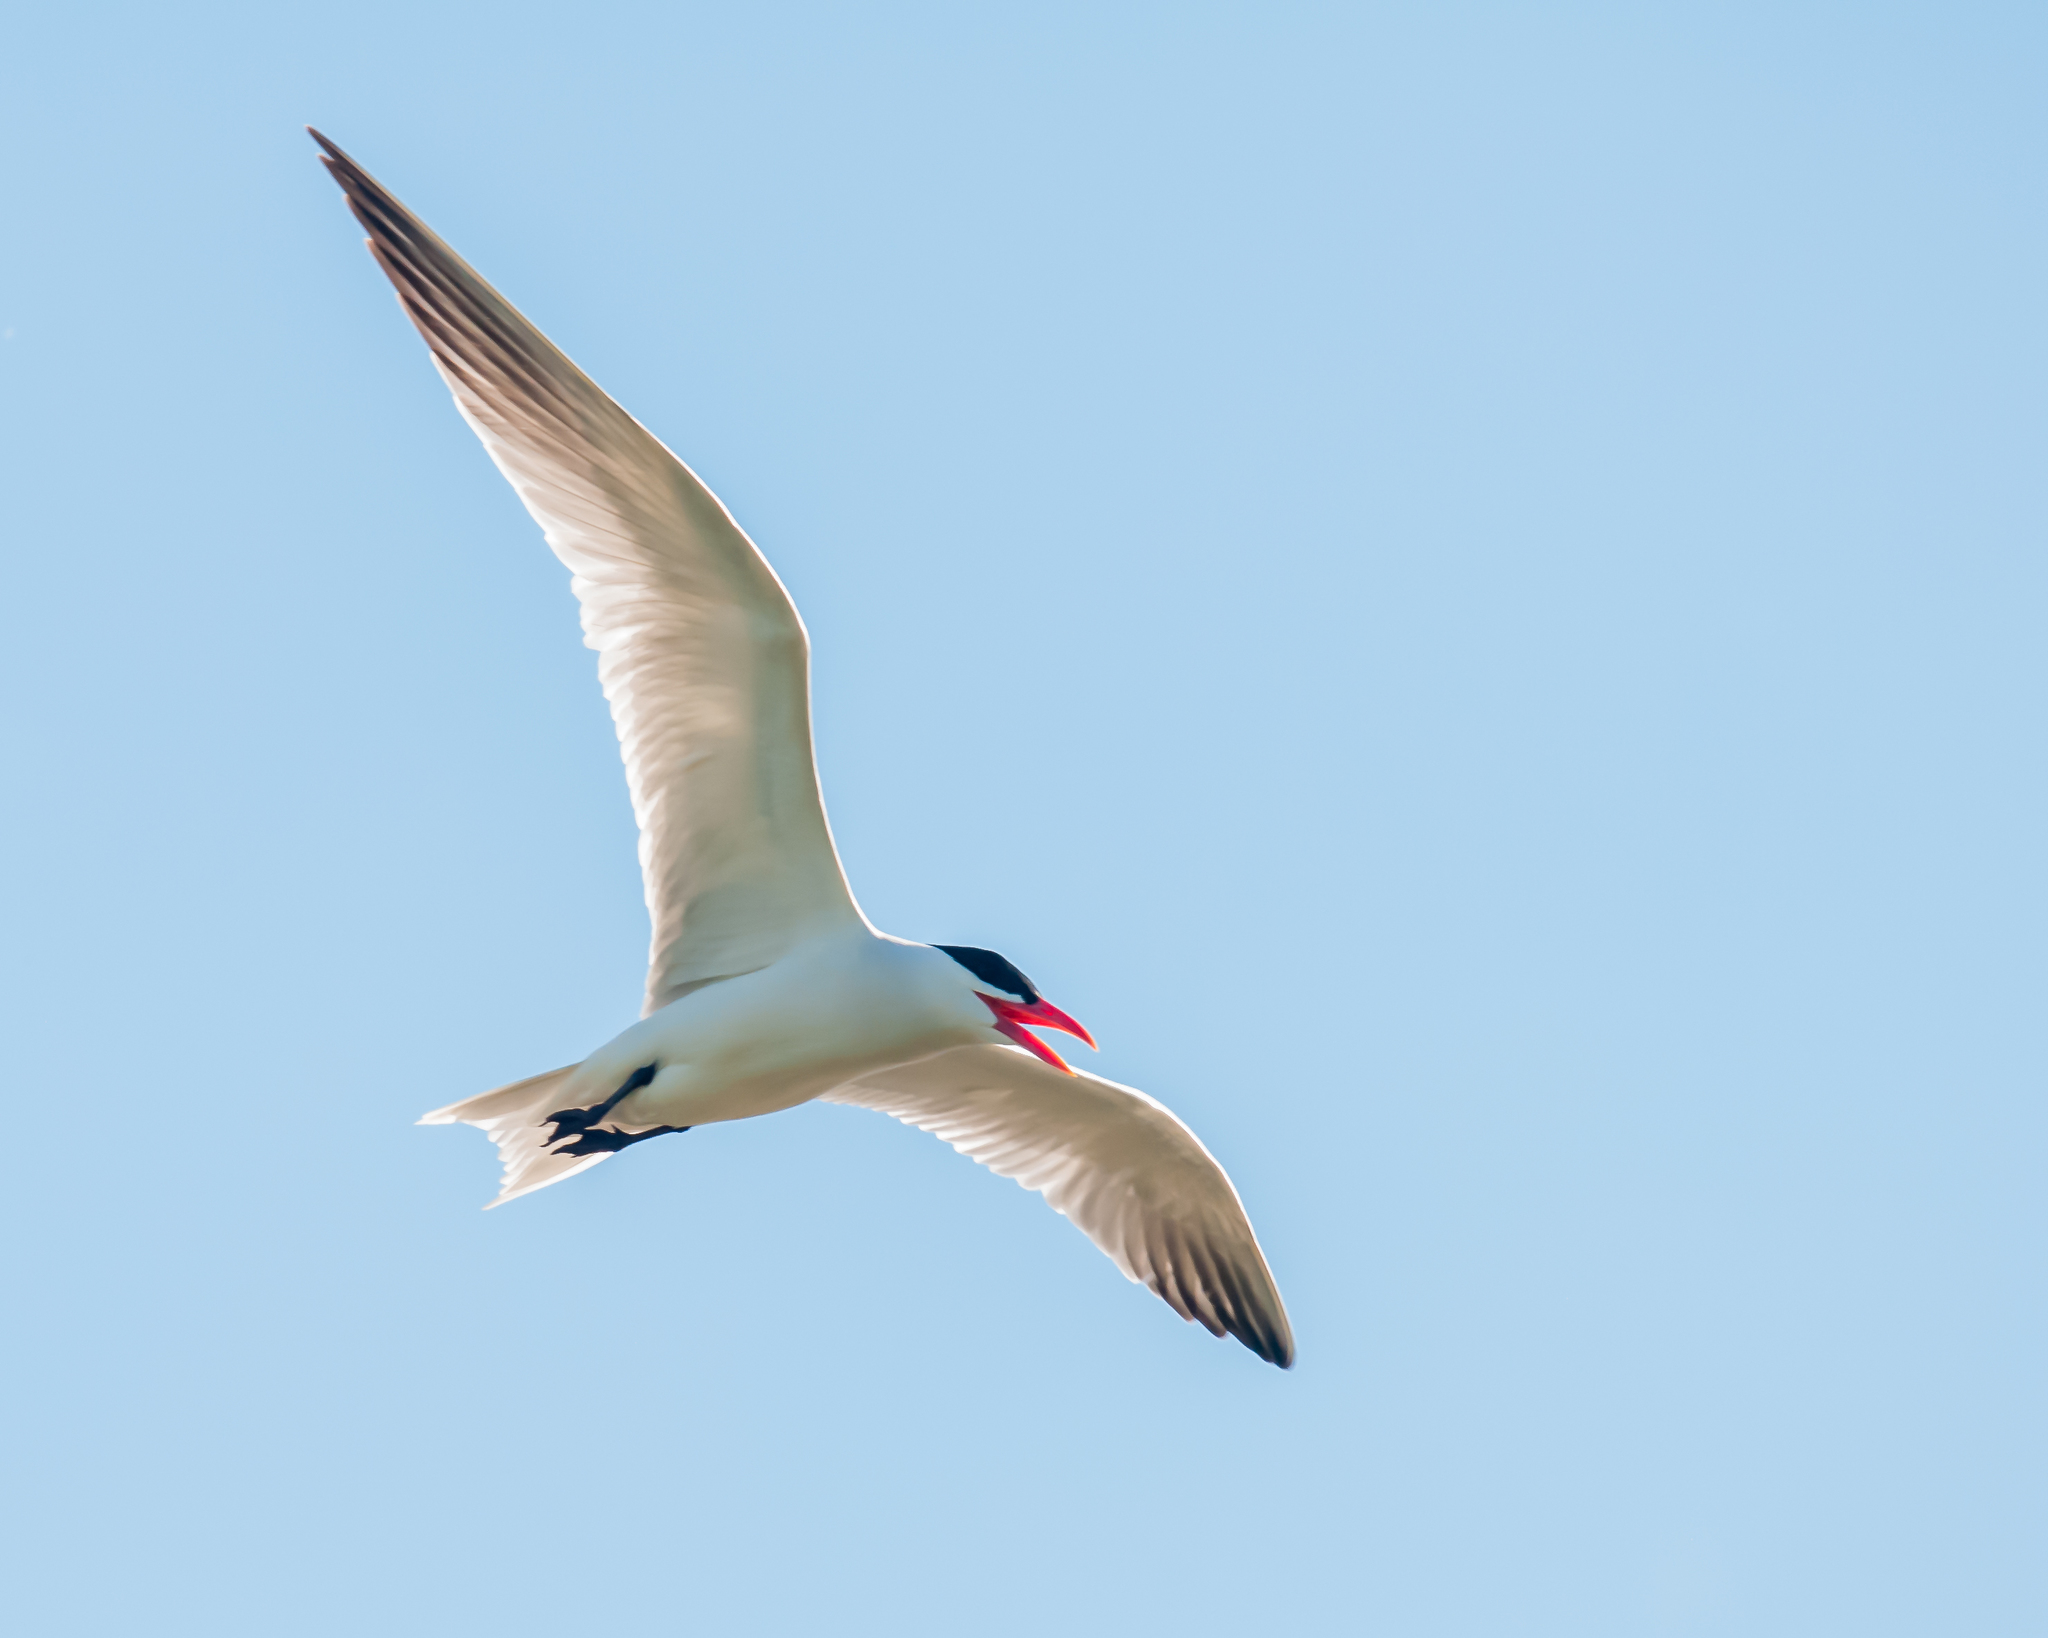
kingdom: Animalia
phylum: Chordata
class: Aves
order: Charadriiformes
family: Laridae
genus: Hydroprogne
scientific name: Hydroprogne caspia
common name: Caspian tern
